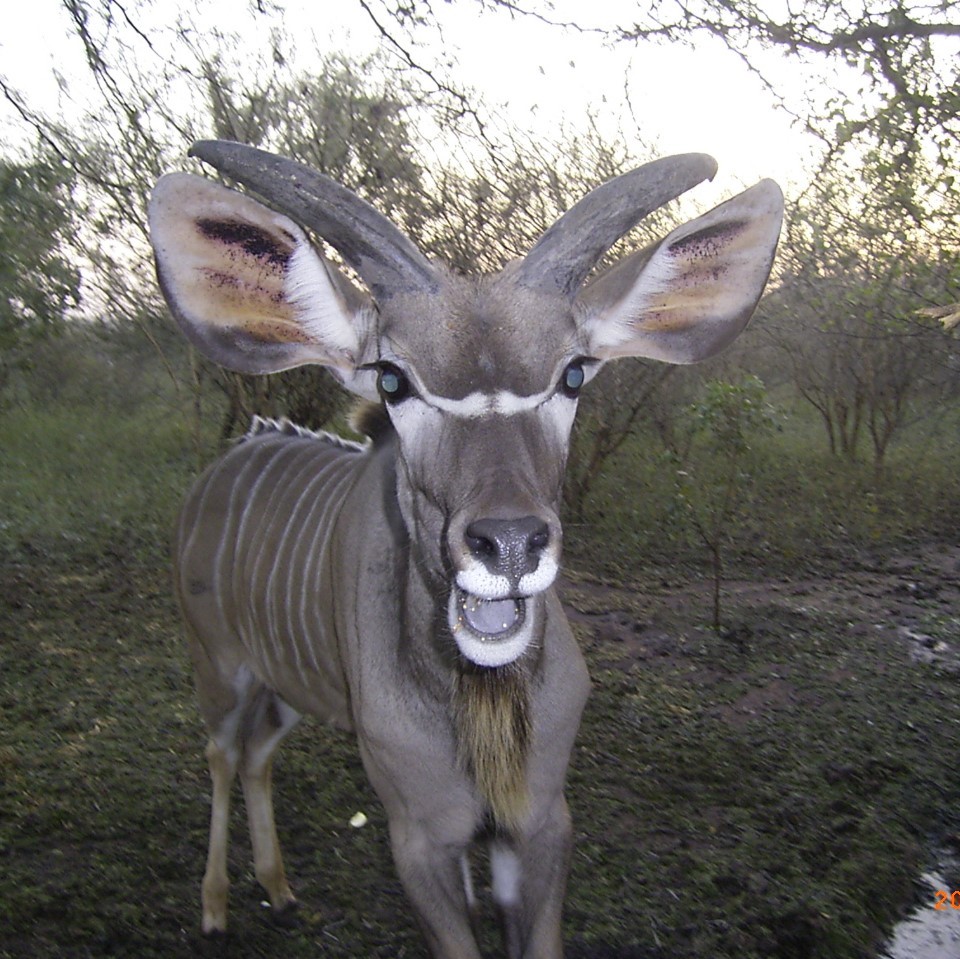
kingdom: Animalia
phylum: Chordata
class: Mammalia
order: Artiodactyla
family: Bovidae
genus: Tragelaphus
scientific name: Tragelaphus strepsiceros
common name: Greater kudu
